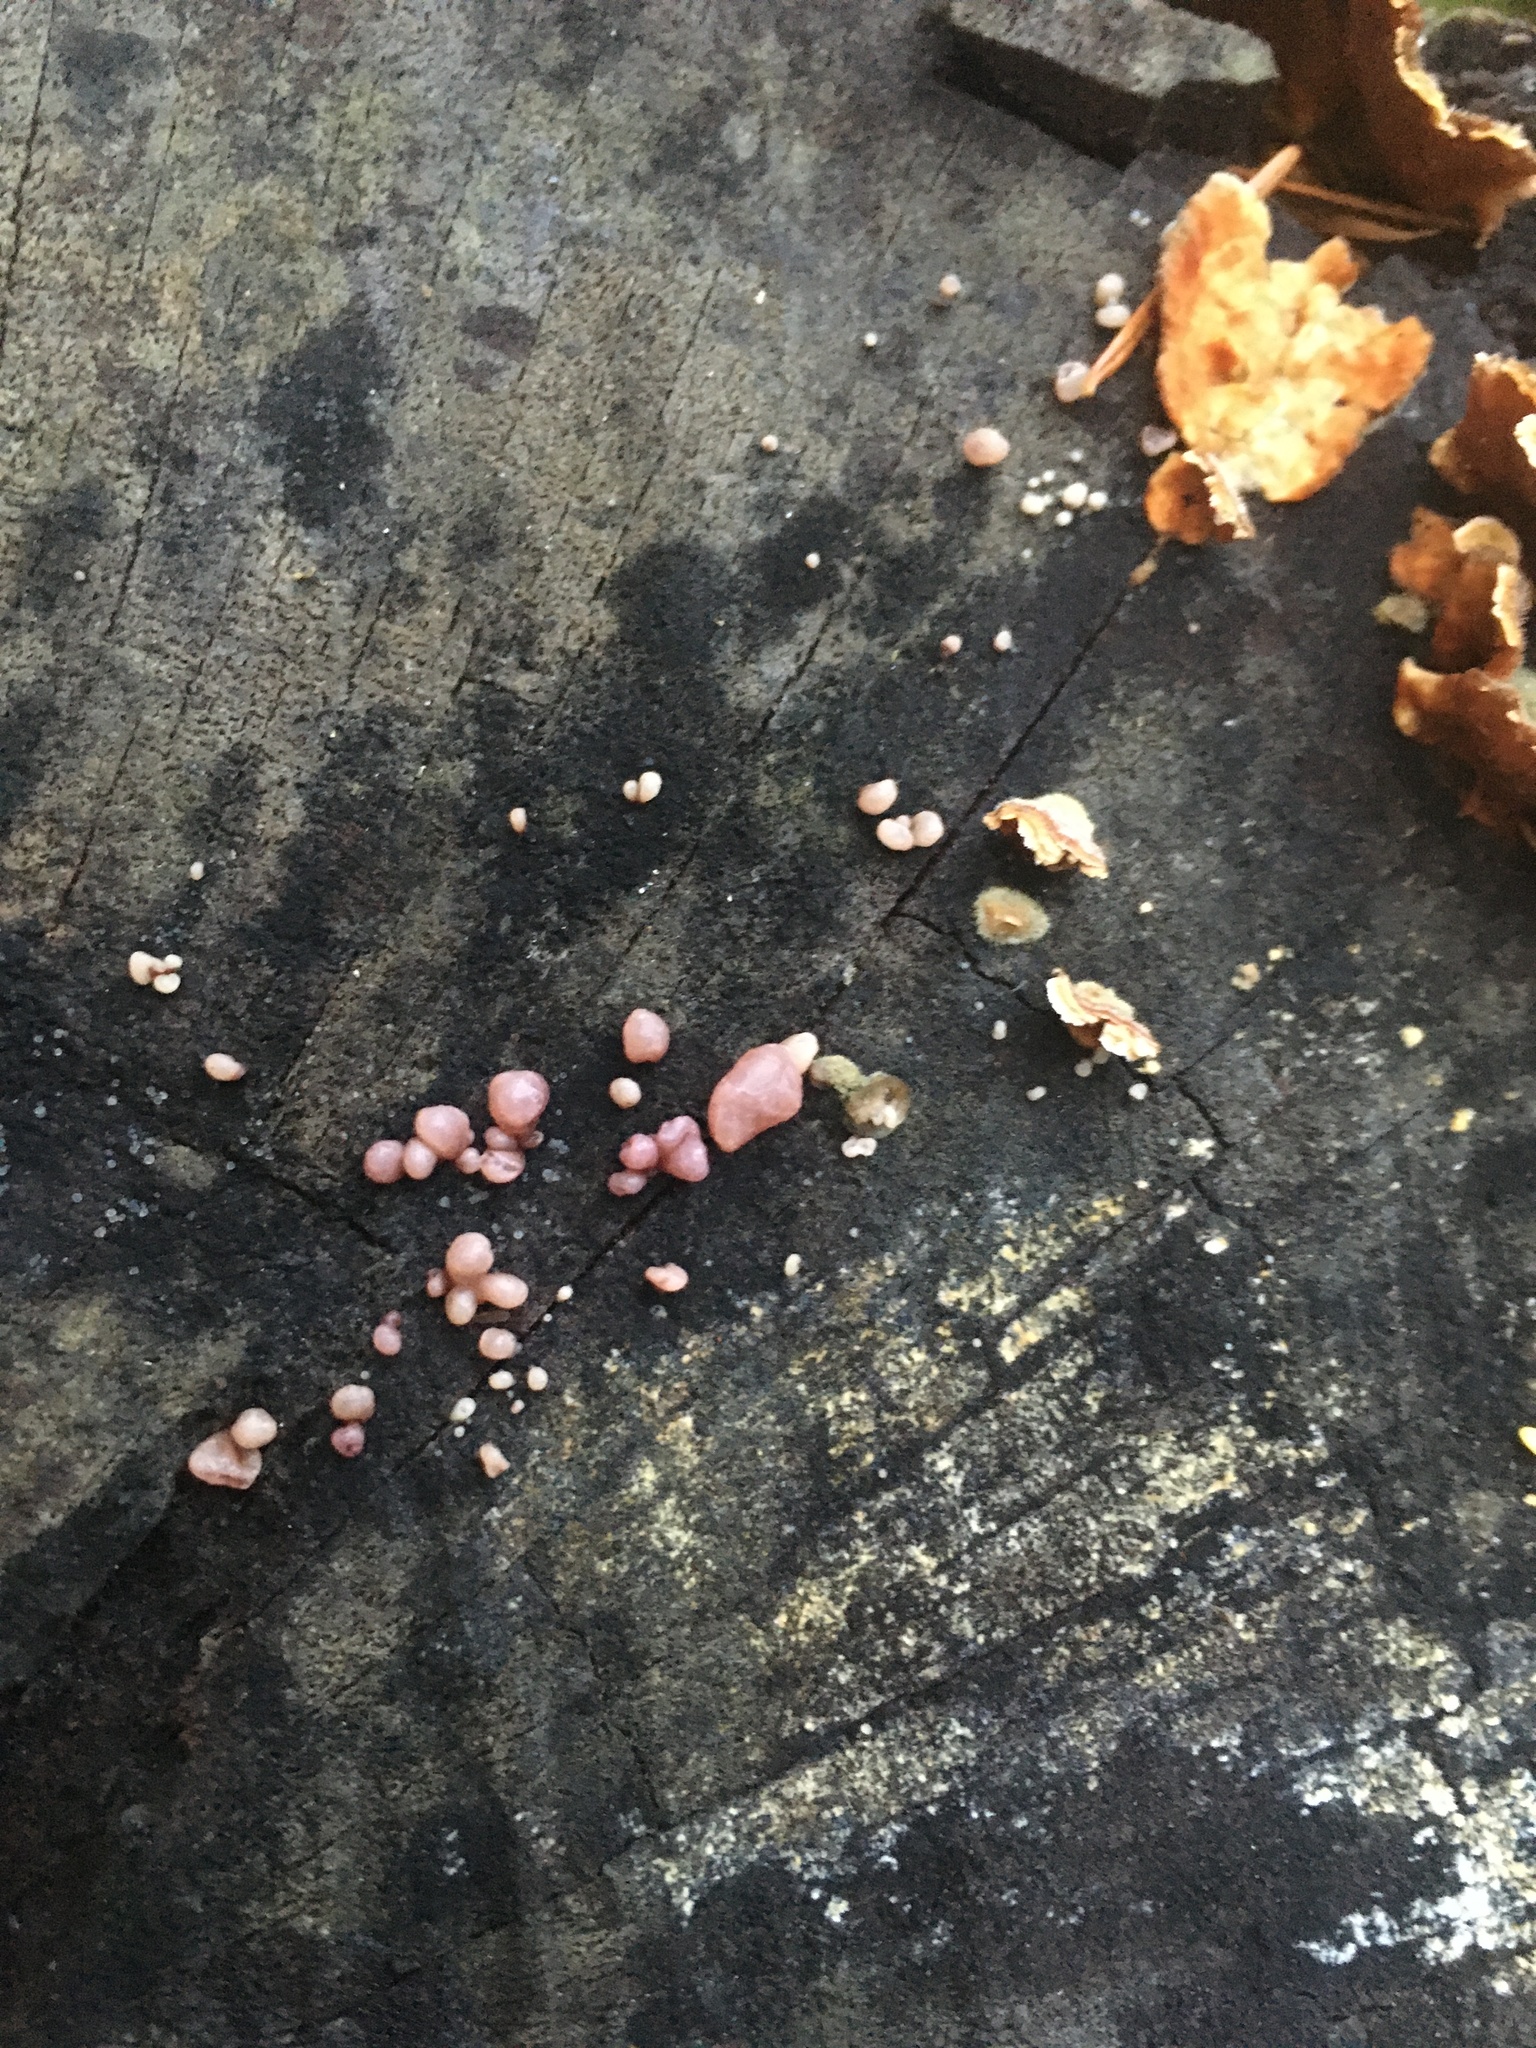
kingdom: Fungi
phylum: Ascomycota
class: Leotiomycetes
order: Helotiales
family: Gelatinodiscaceae
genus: Ascocoryne
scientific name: Ascocoryne sarcoides
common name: Purple jellydisc
